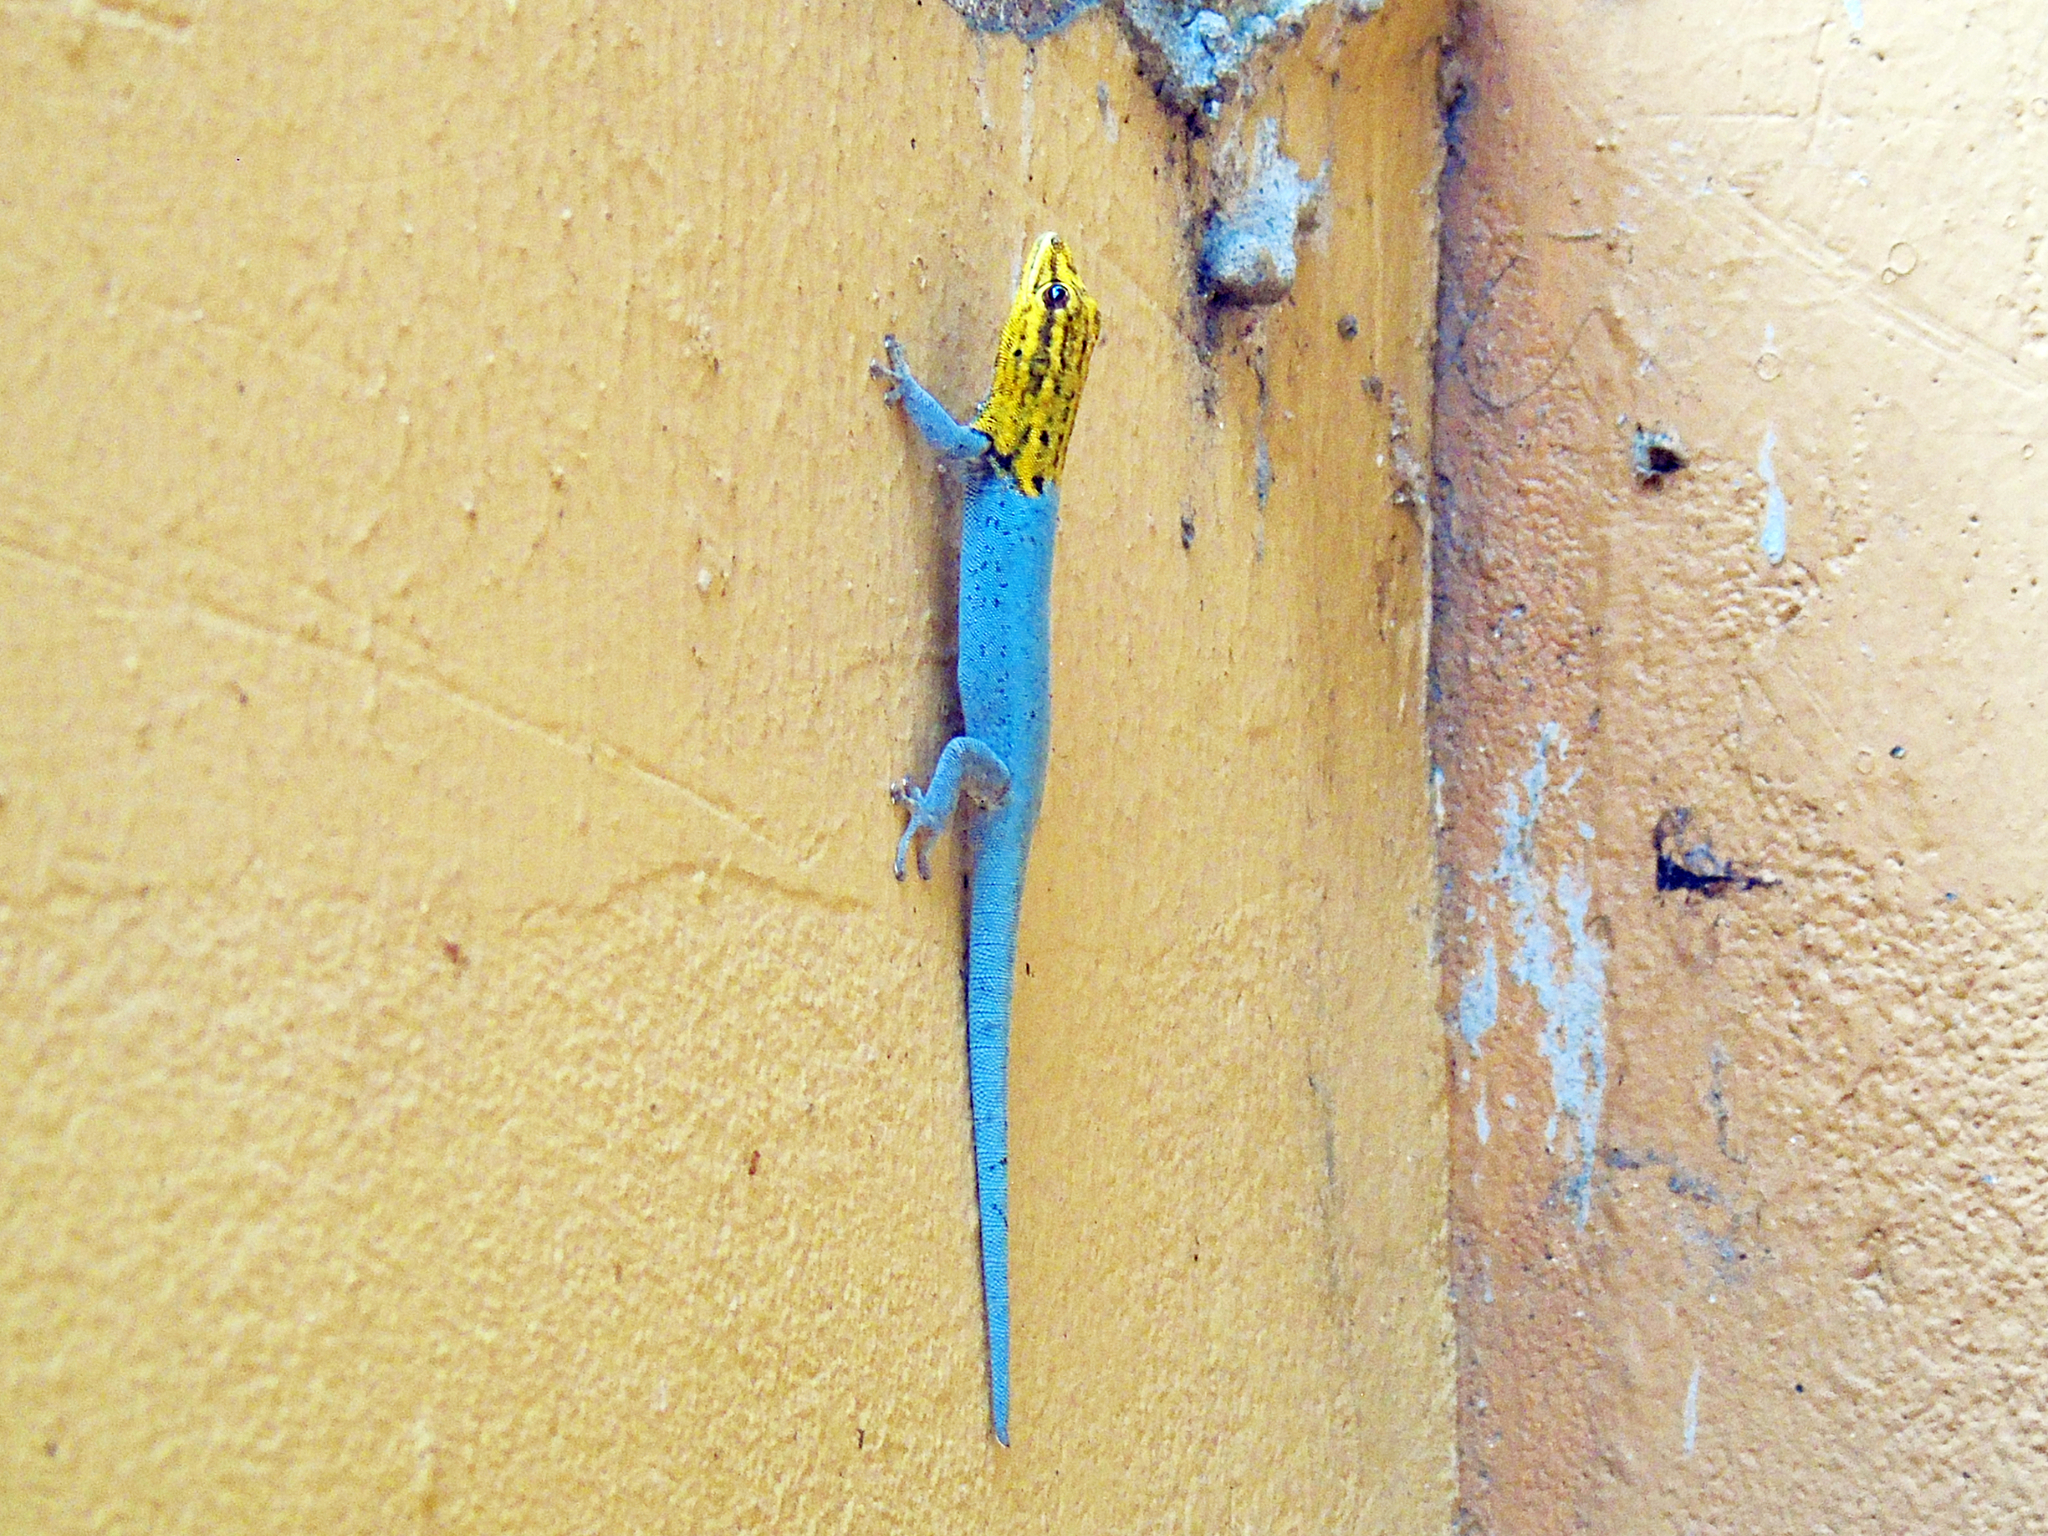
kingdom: Animalia
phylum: Chordata
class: Squamata
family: Gekkonidae
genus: Lygodactylus
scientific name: Lygodactylus picturatus
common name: Painted dwarf gecko
